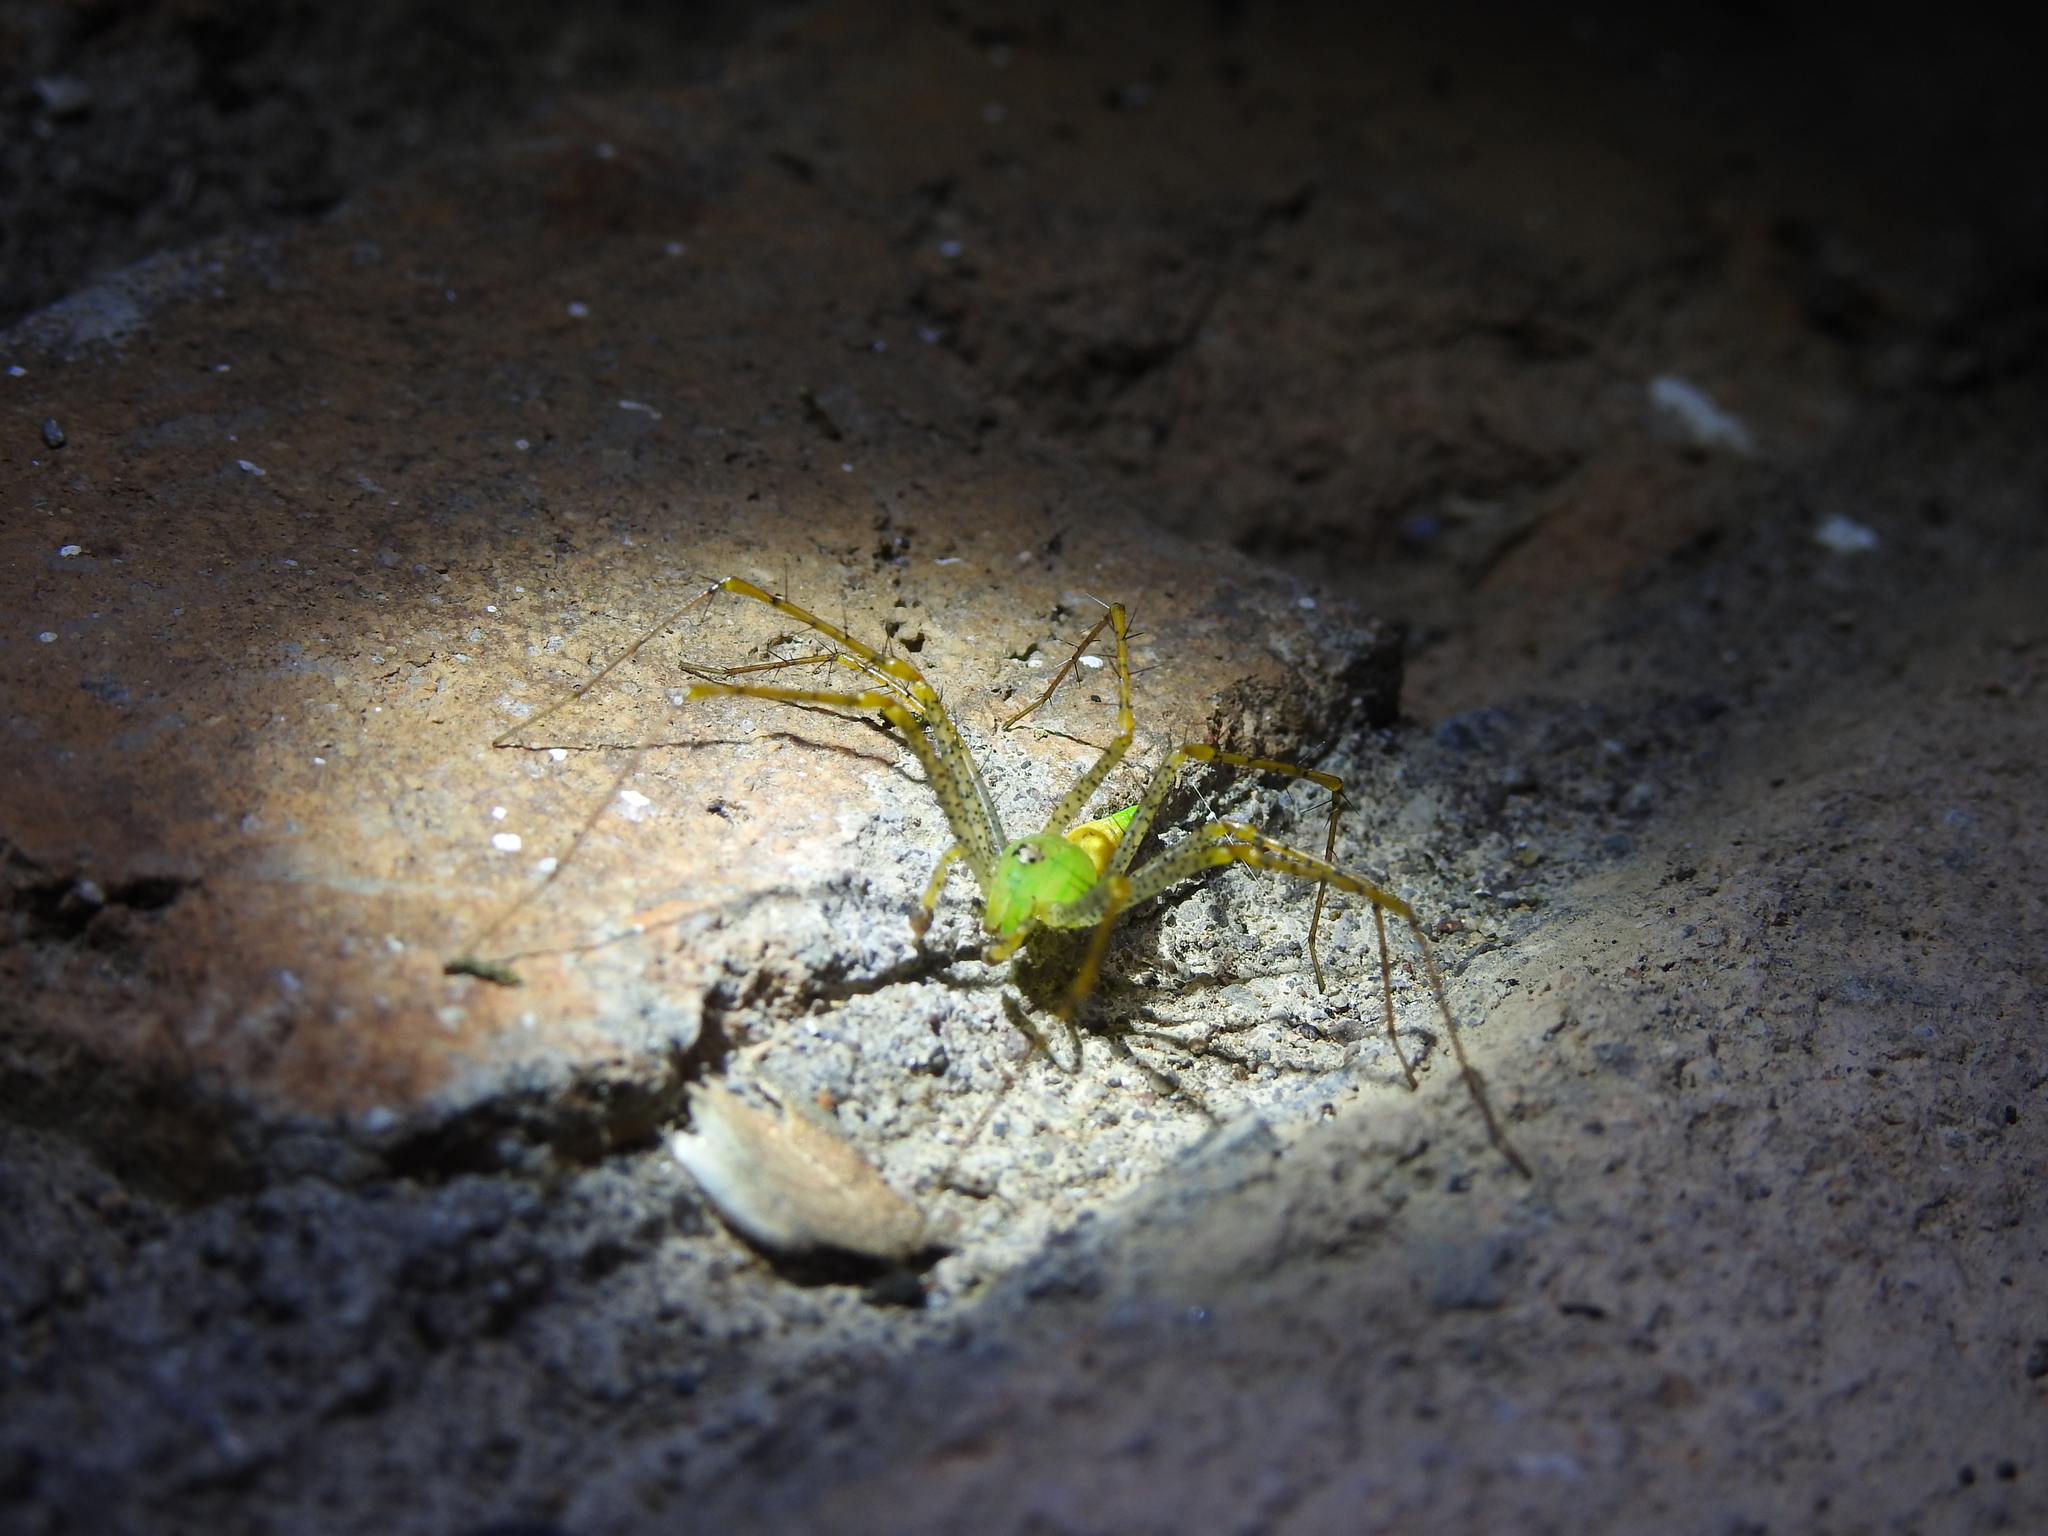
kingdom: Animalia
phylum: Arthropoda
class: Arachnida
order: Araneae
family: Oxyopidae
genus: Peucetia
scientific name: Peucetia viridans
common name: Lynx spiders
